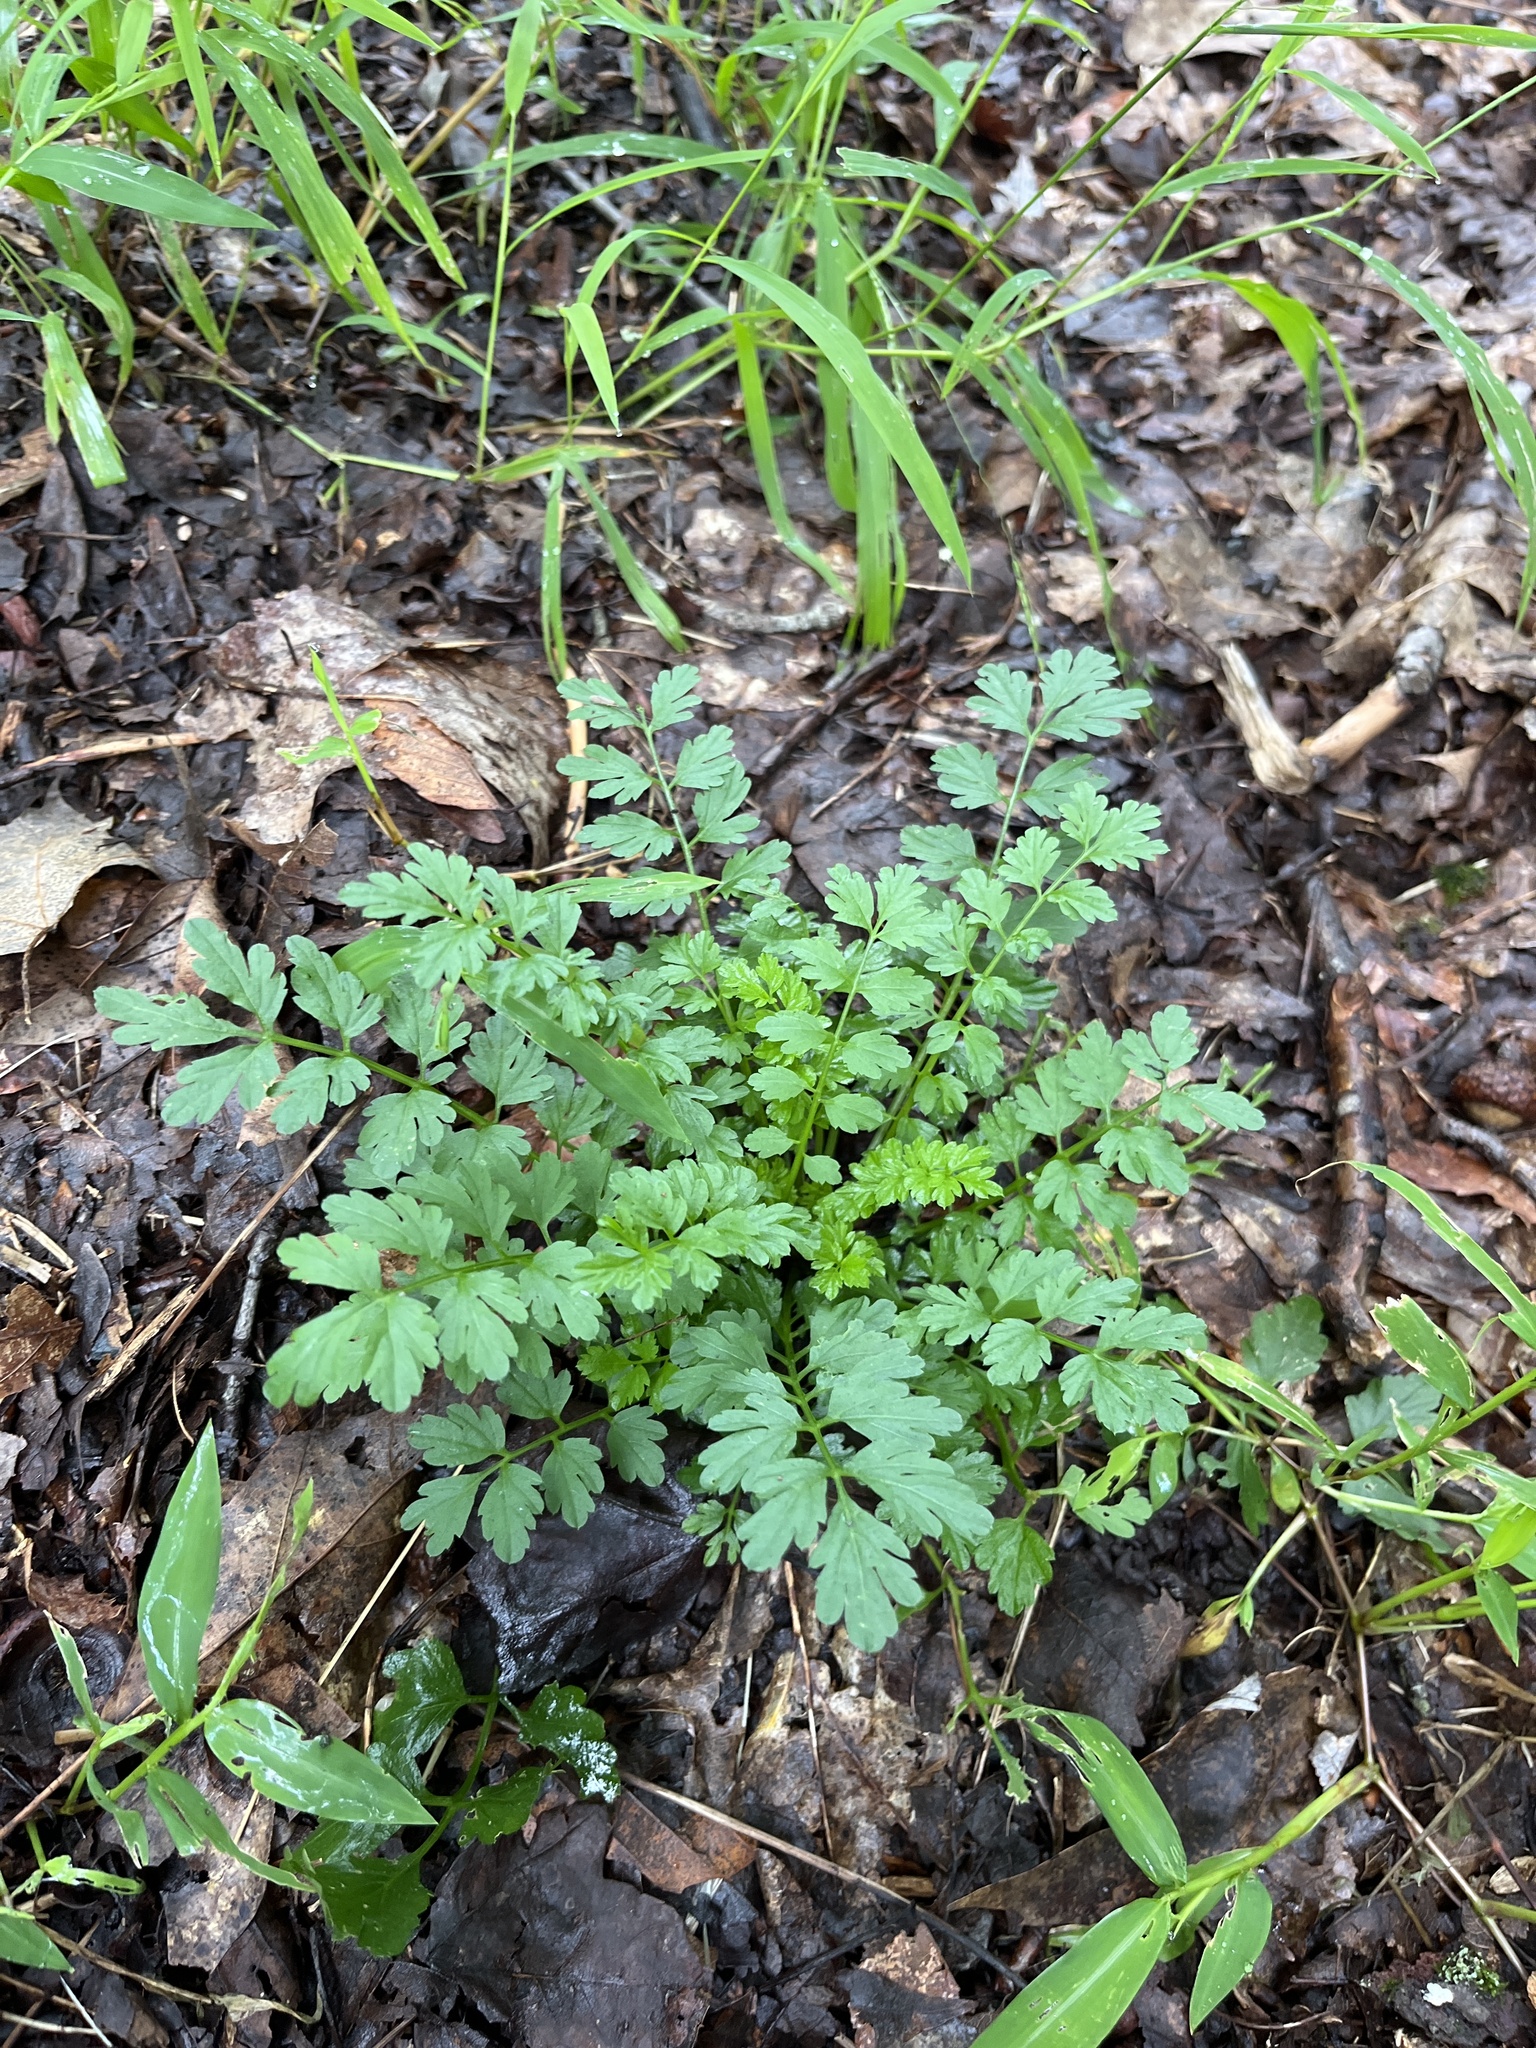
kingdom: Plantae
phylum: Tracheophyta
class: Magnoliopsida
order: Brassicales
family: Brassicaceae
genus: Cardamine
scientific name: Cardamine impatiens
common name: Narrow-leaved bitter-cress
